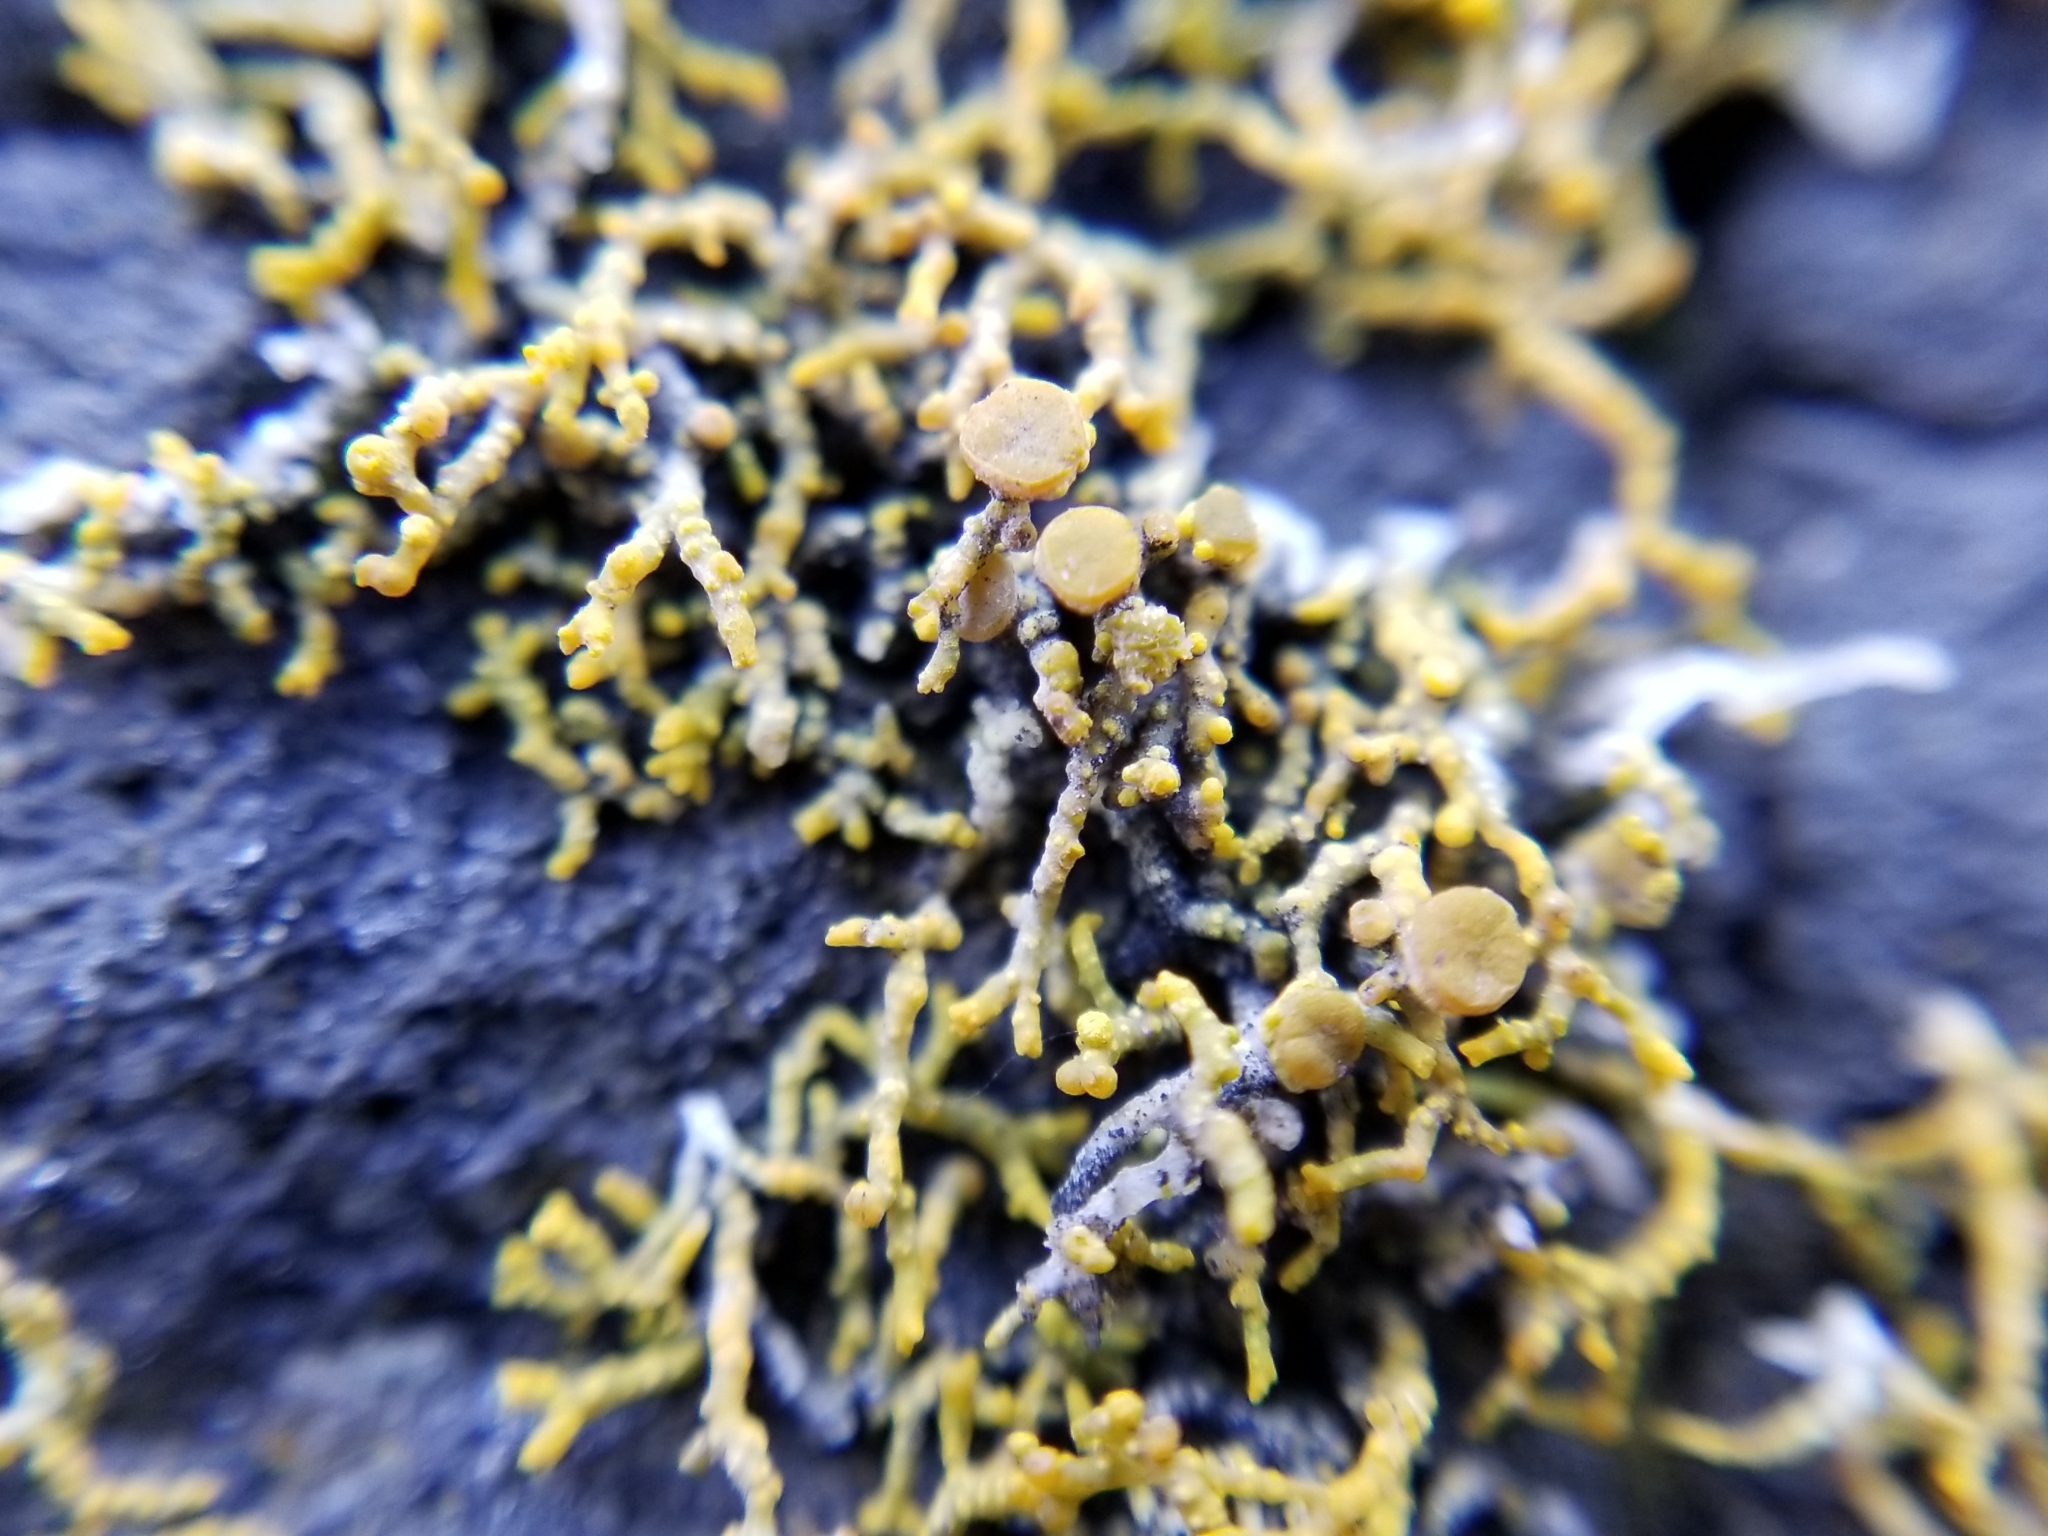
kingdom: Fungi
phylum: Ascomycota
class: Lecanoromycetes
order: Teloschistales
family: Teloschistaceae
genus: Polycauliona
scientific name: Polycauliona coralloides
